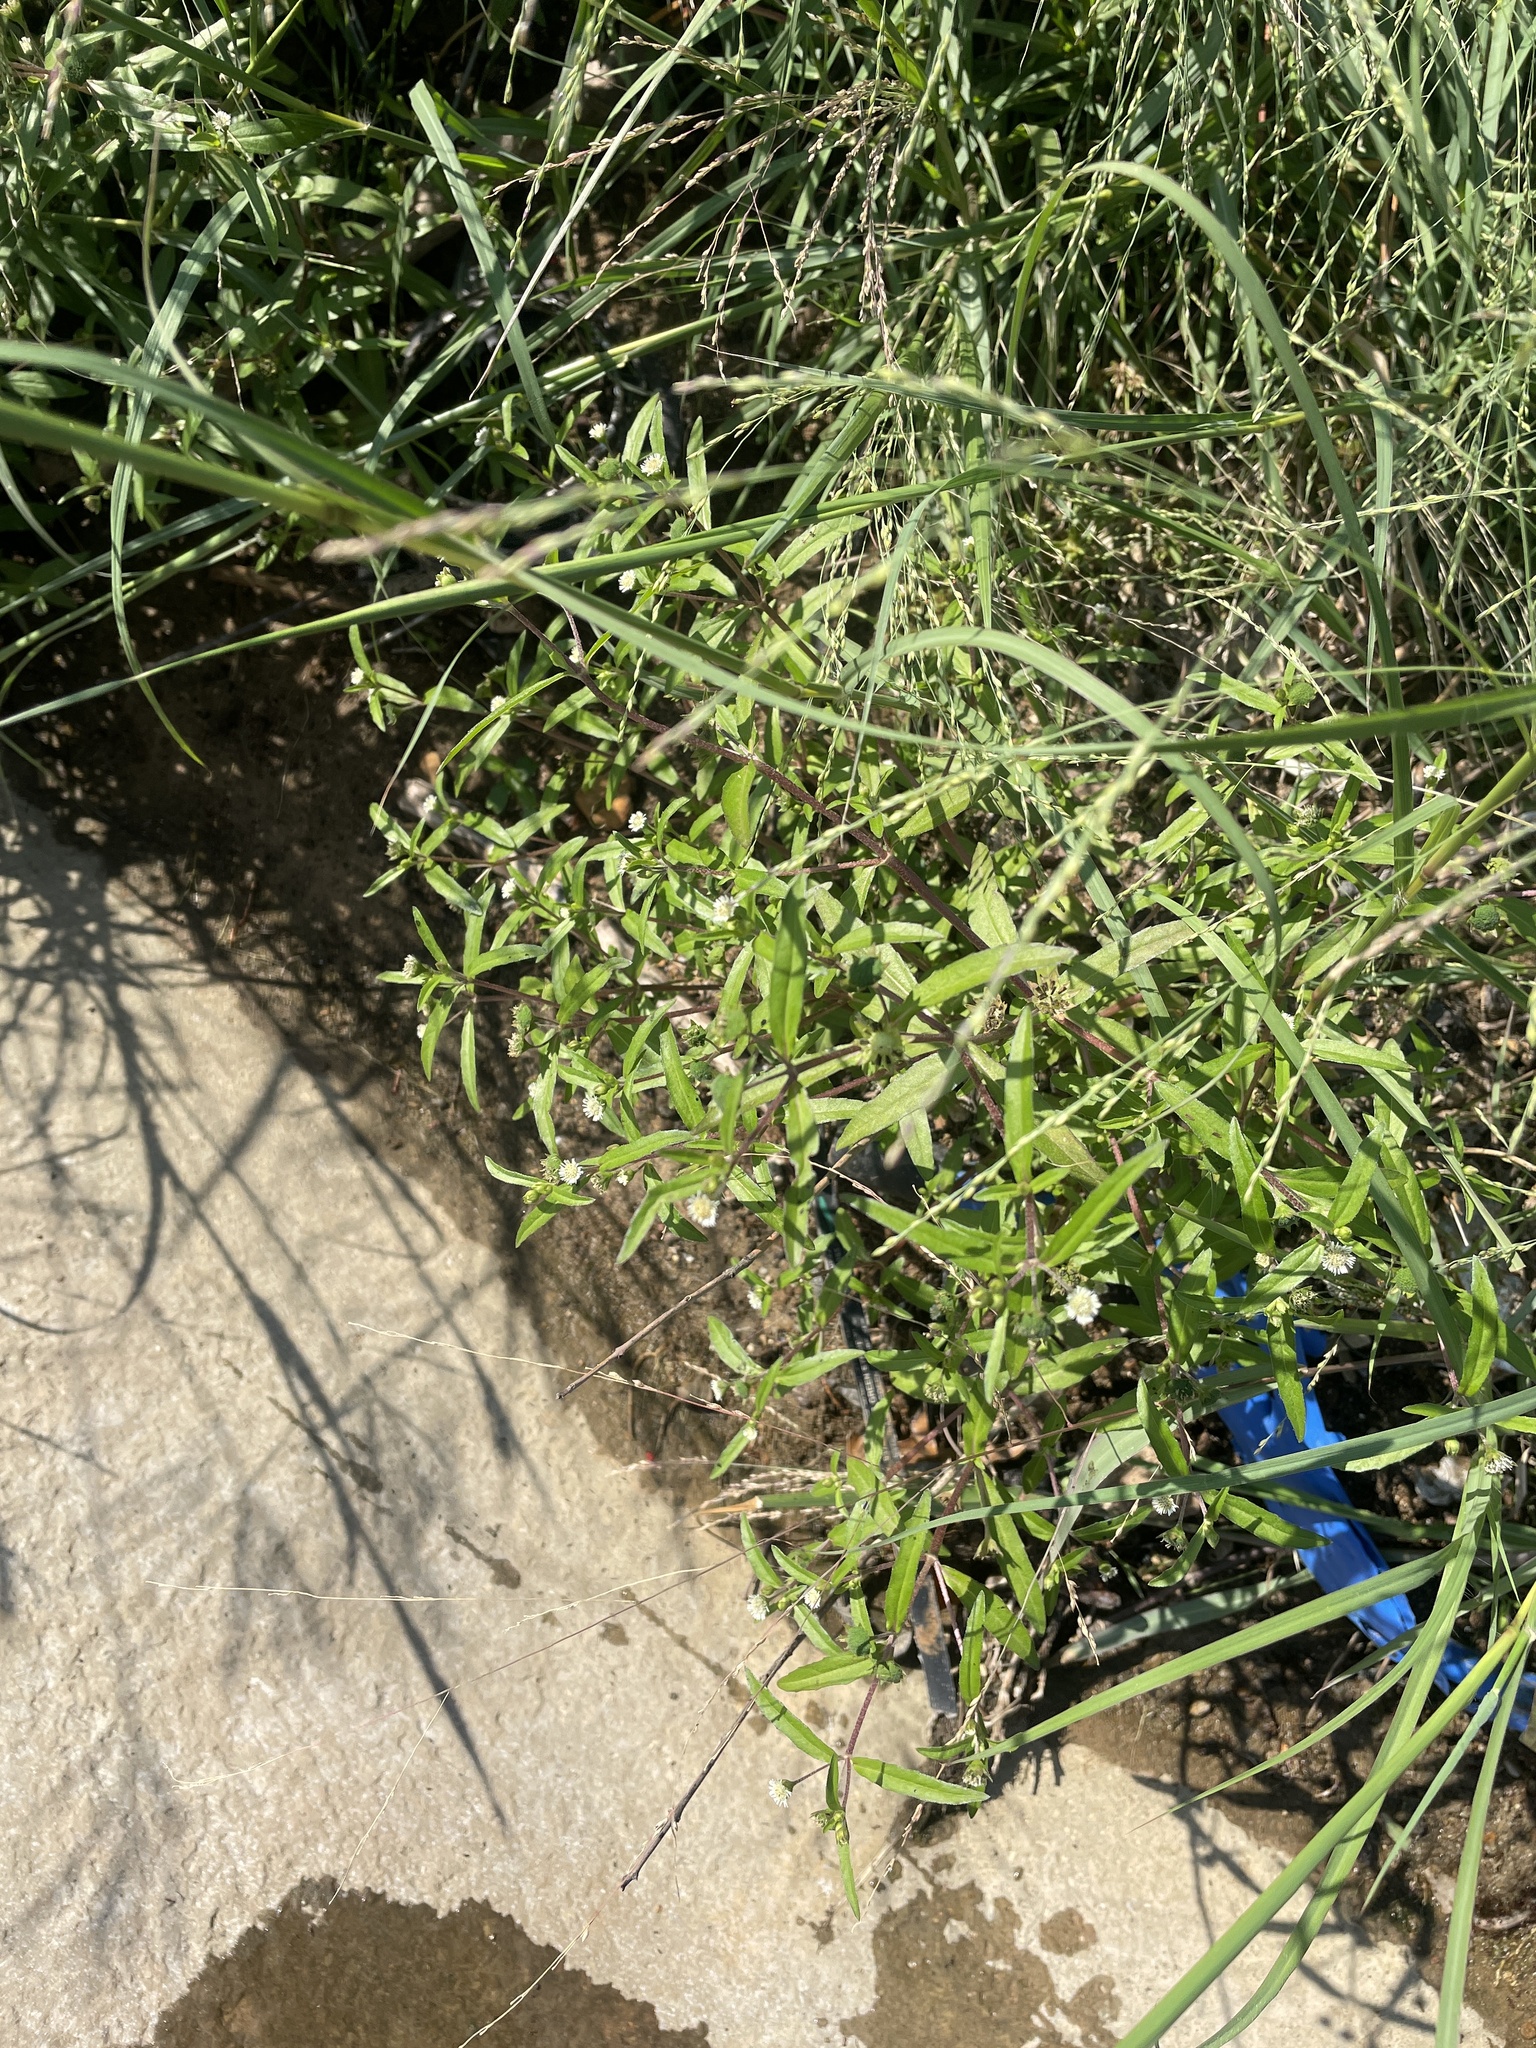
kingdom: Plantae
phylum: Tracheophyta
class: Magnoliopsida
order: Asterales
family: Asteraceae
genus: Eclipta
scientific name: Eclipta prostrata
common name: False daisy
